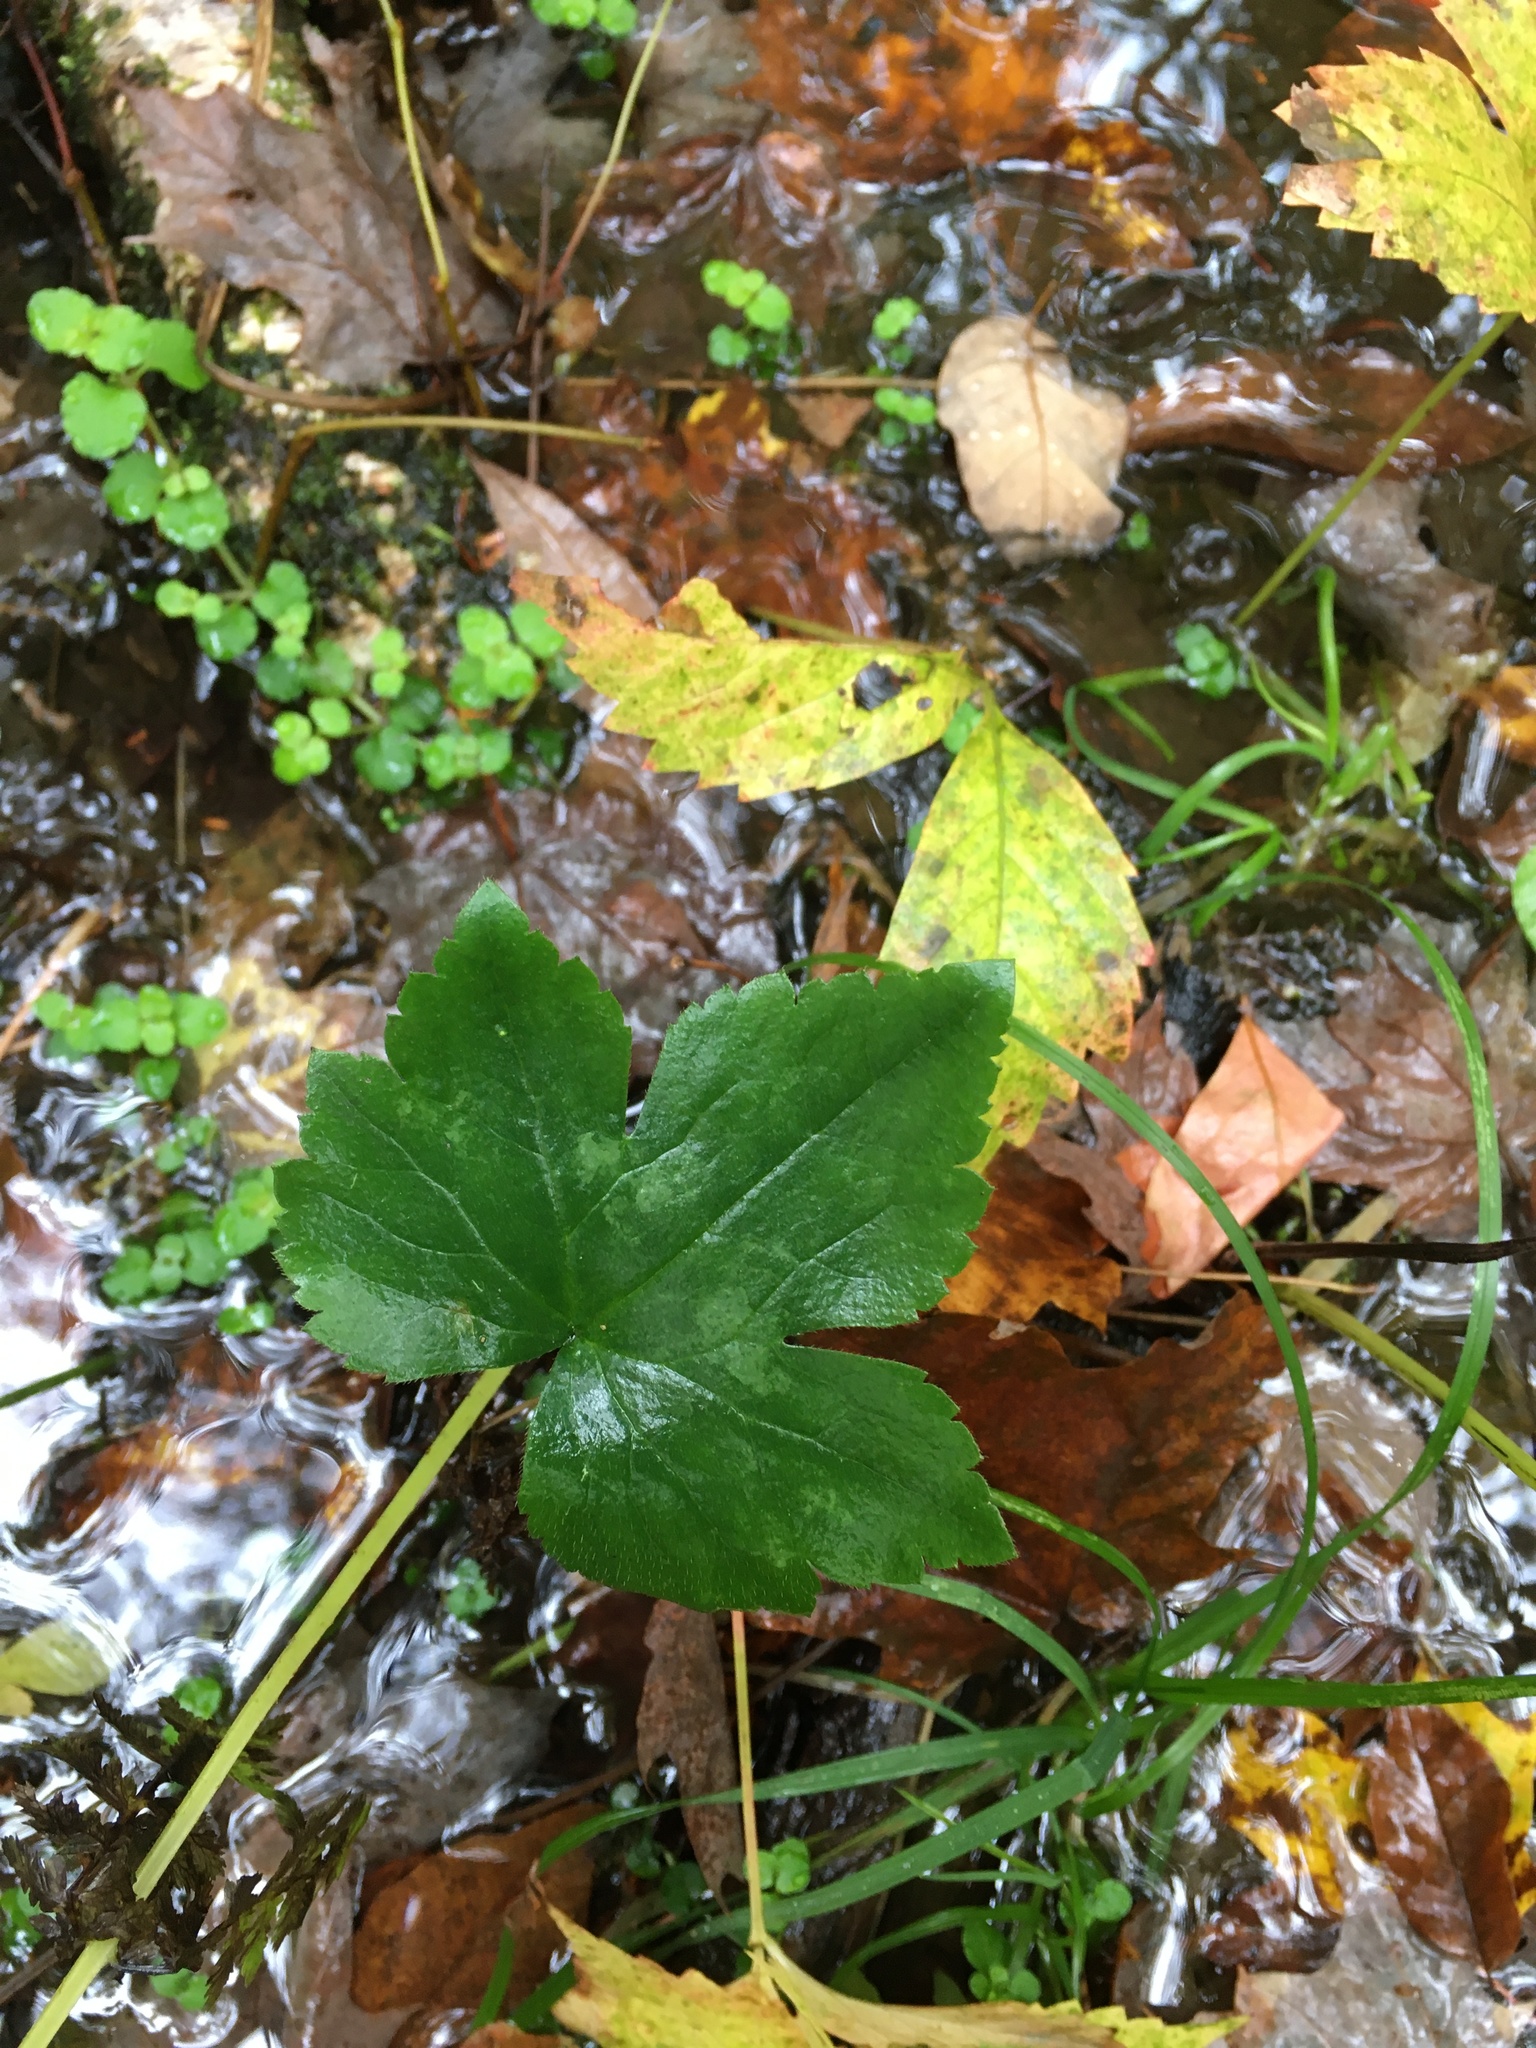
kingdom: Plantae
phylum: Tracheophyta
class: Magnoliopsida
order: Ranunculales
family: Ranunculaceae
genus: Ranunculus
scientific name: Ranunculus recurvatus
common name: Blisterwort
